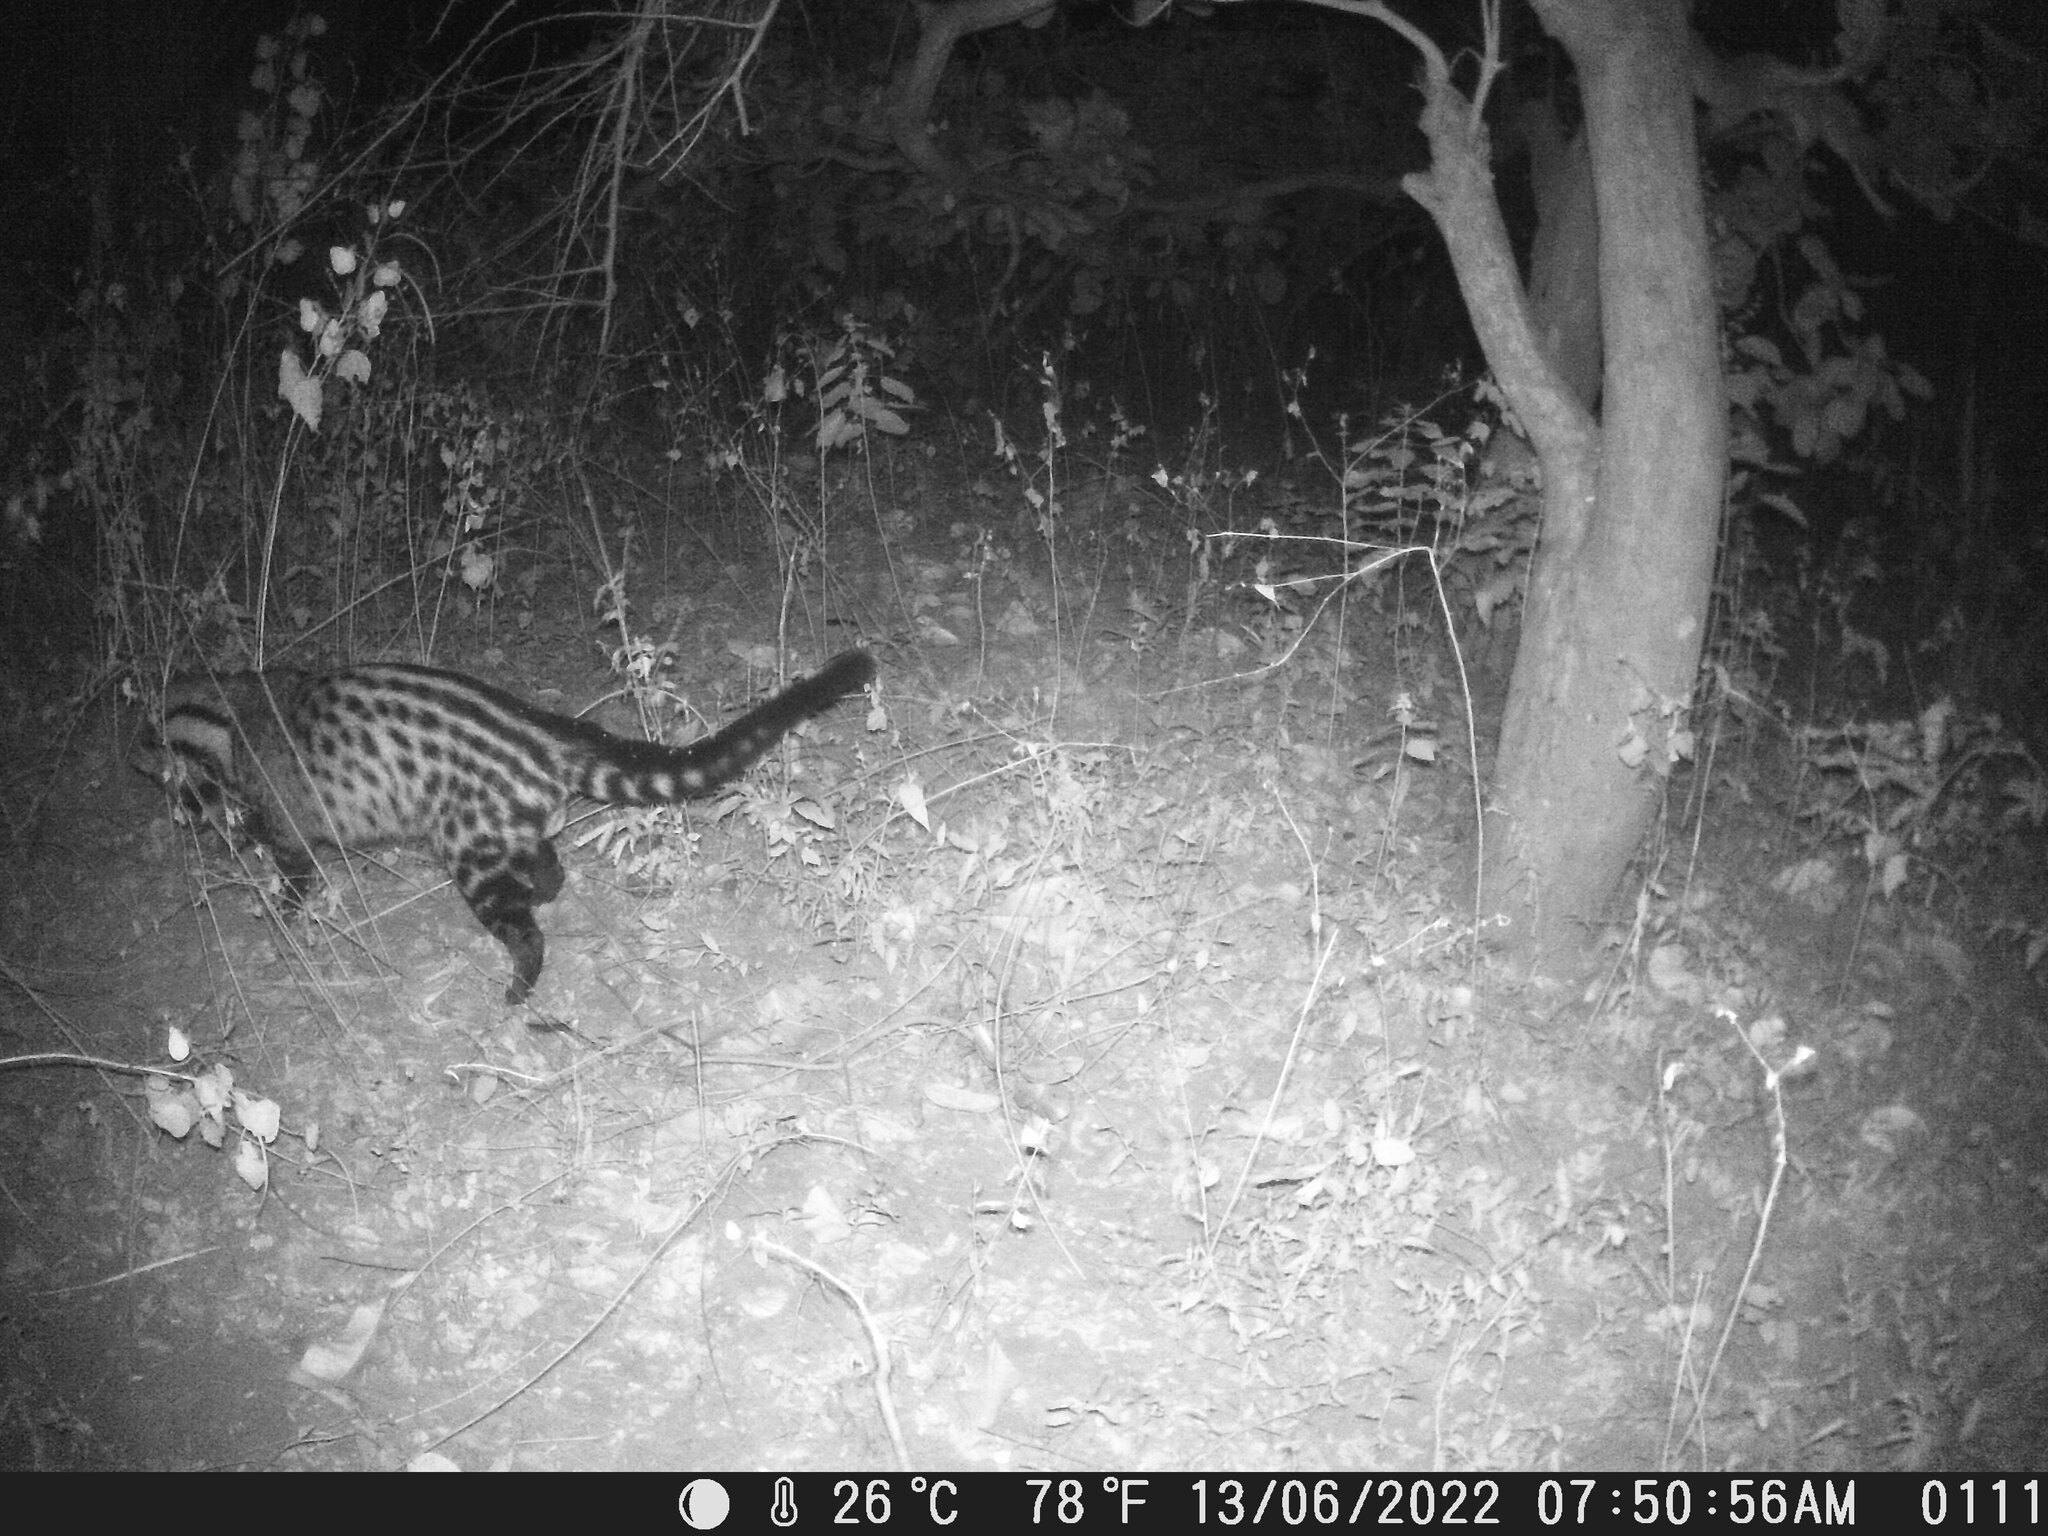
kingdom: Animalia
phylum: Chordata
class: Mammalia
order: Carnivora
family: Viverridae
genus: Civettictis
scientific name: Civettictis civetta
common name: African civet
